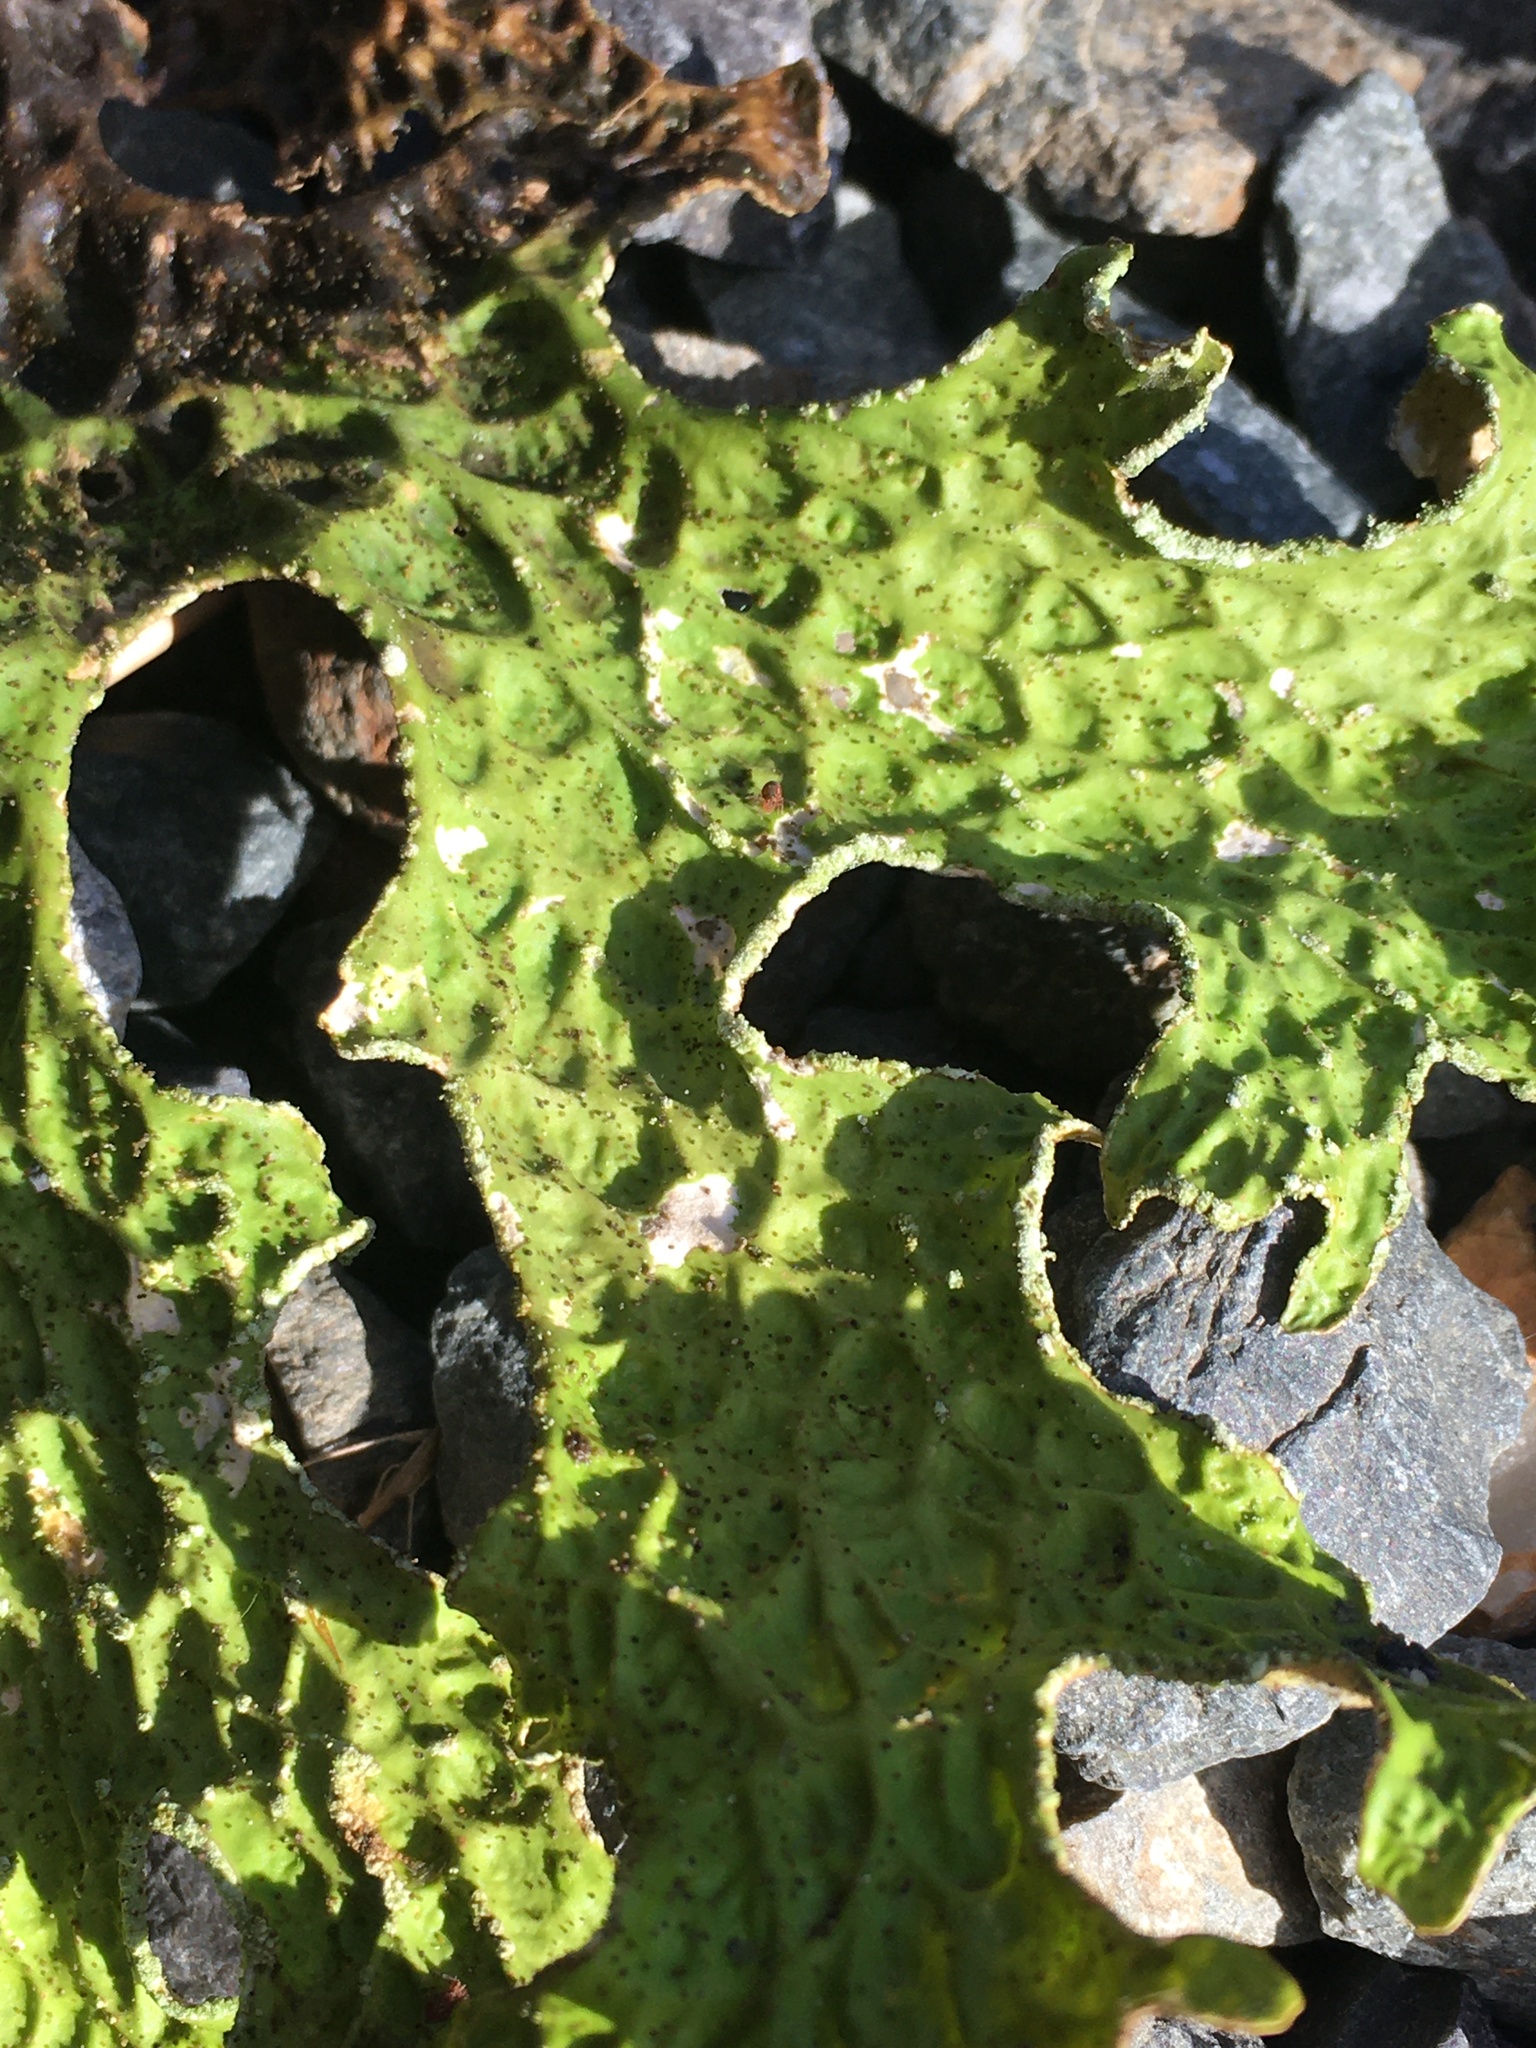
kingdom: Fungi
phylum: Ascomycota
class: Lecanoromycetes
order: Peltigerales
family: Lobariaceae
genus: Lobaria
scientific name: Lobaria pulmonaria
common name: Lungwort
